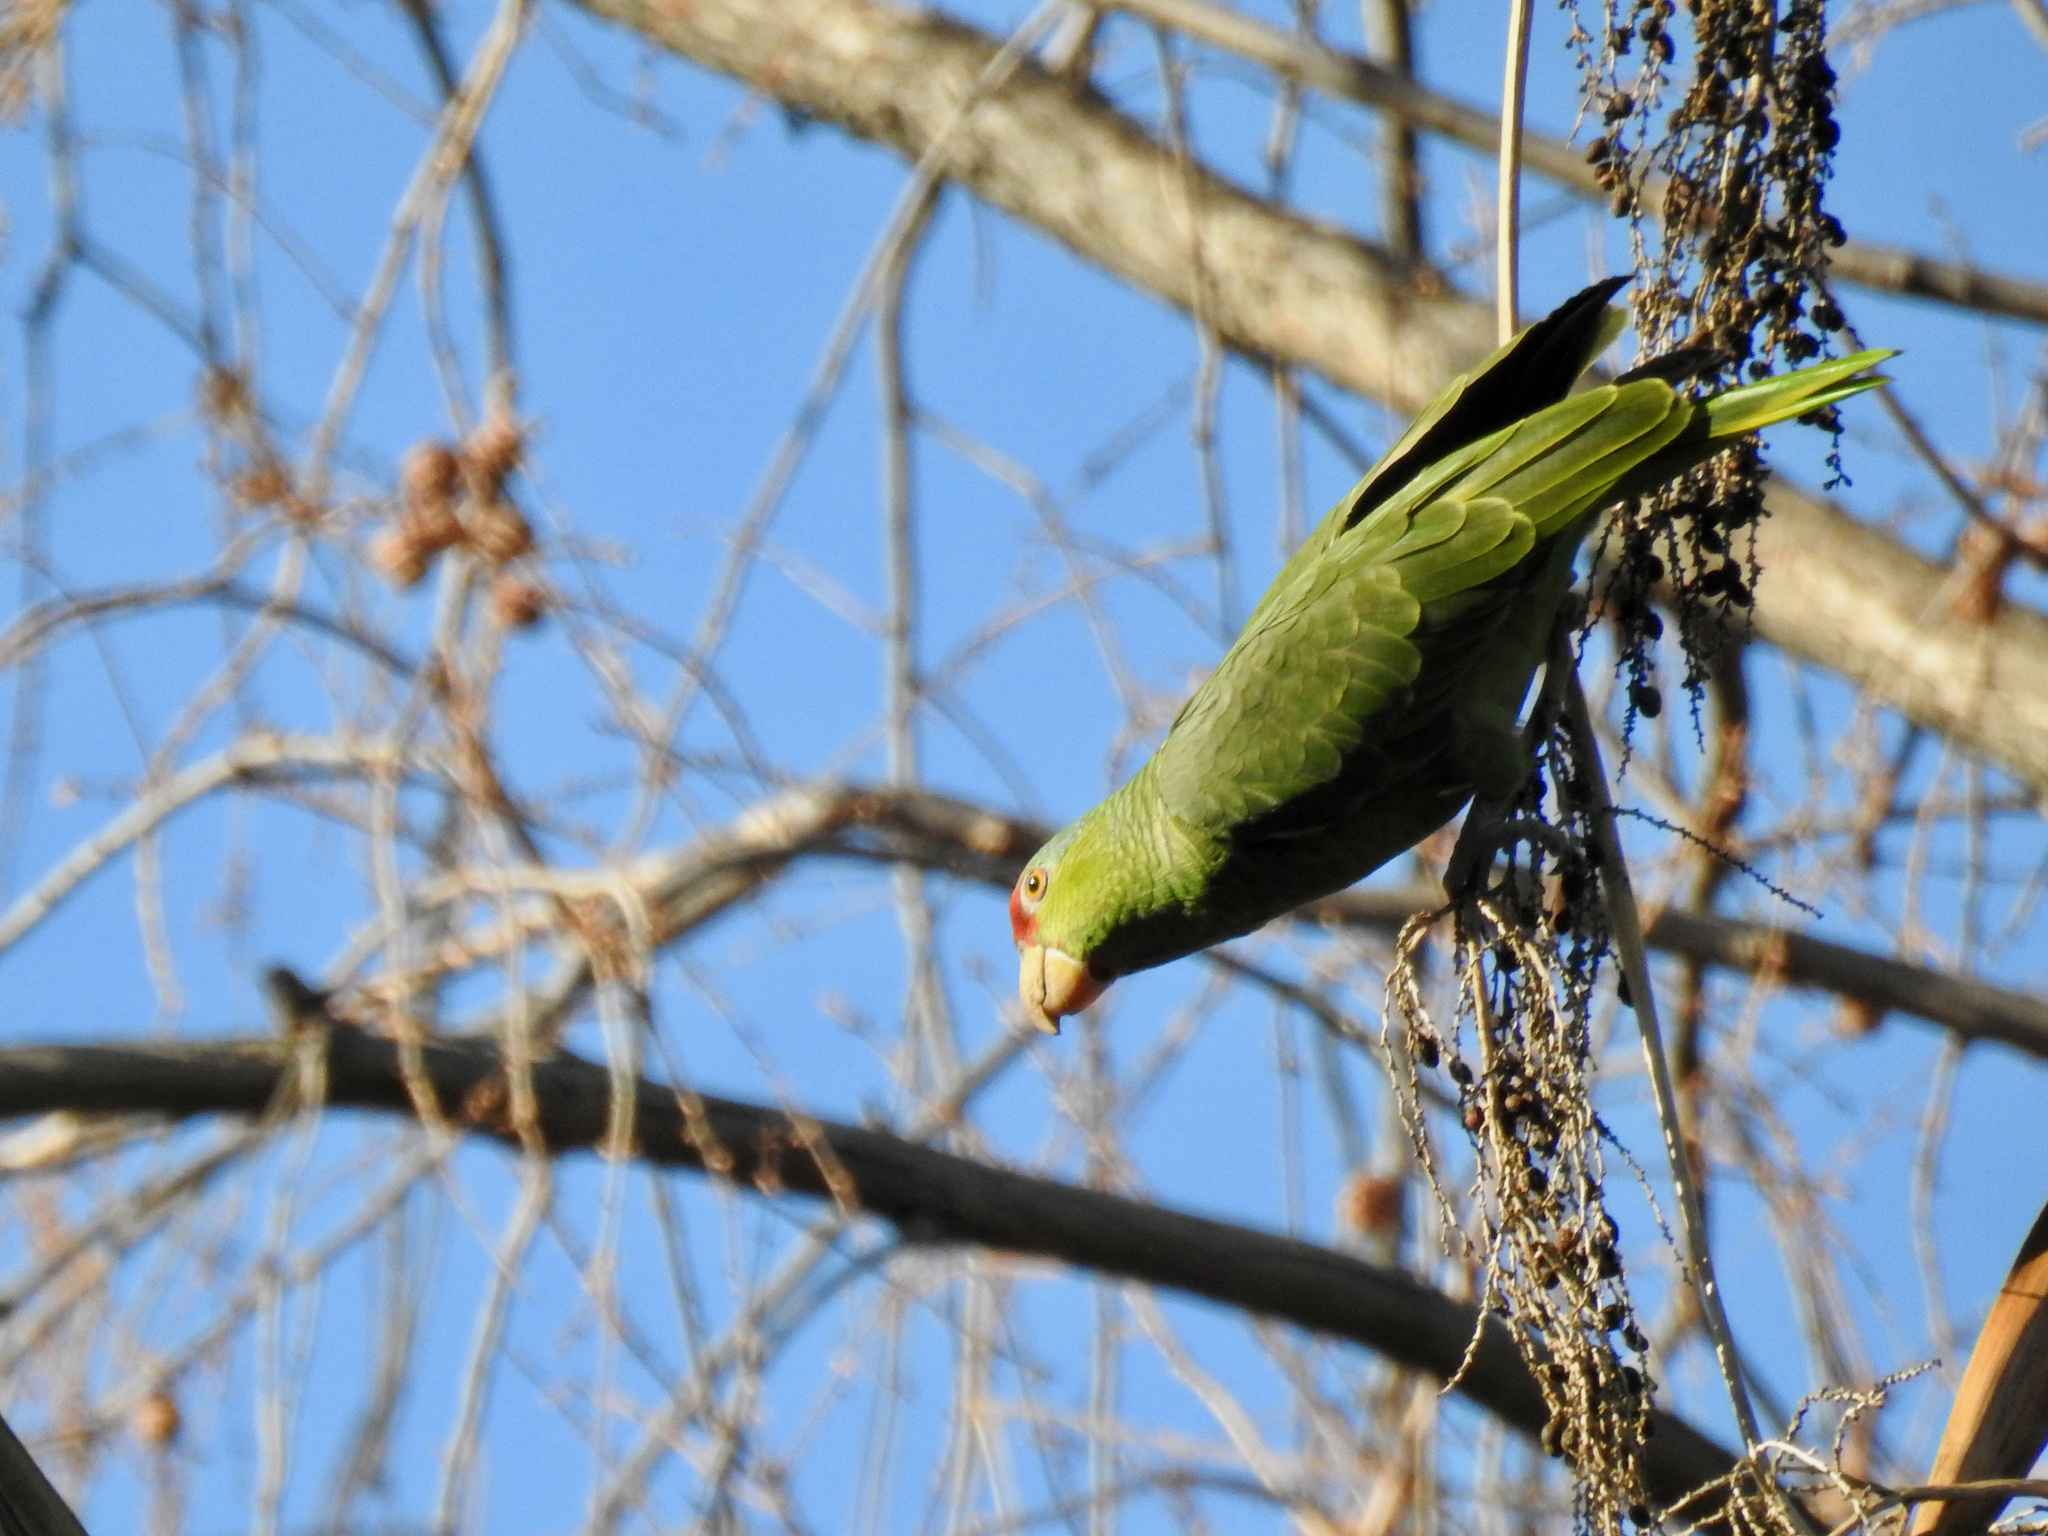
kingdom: Animalia
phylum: Chordata
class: Aves
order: Psittaciformes
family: Psittacidae
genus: Amazona
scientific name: Amazona viridigenalis
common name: Red-crowned amazon
